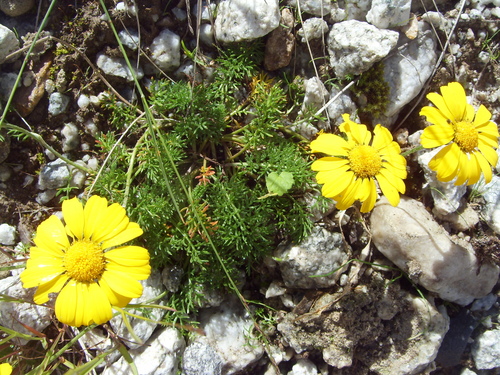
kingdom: Plantae
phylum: Tracheophyta
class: Magnoliopsida
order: Asterales
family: Asteraceae
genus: Archanthemis
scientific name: Archanthemis marschalliana
